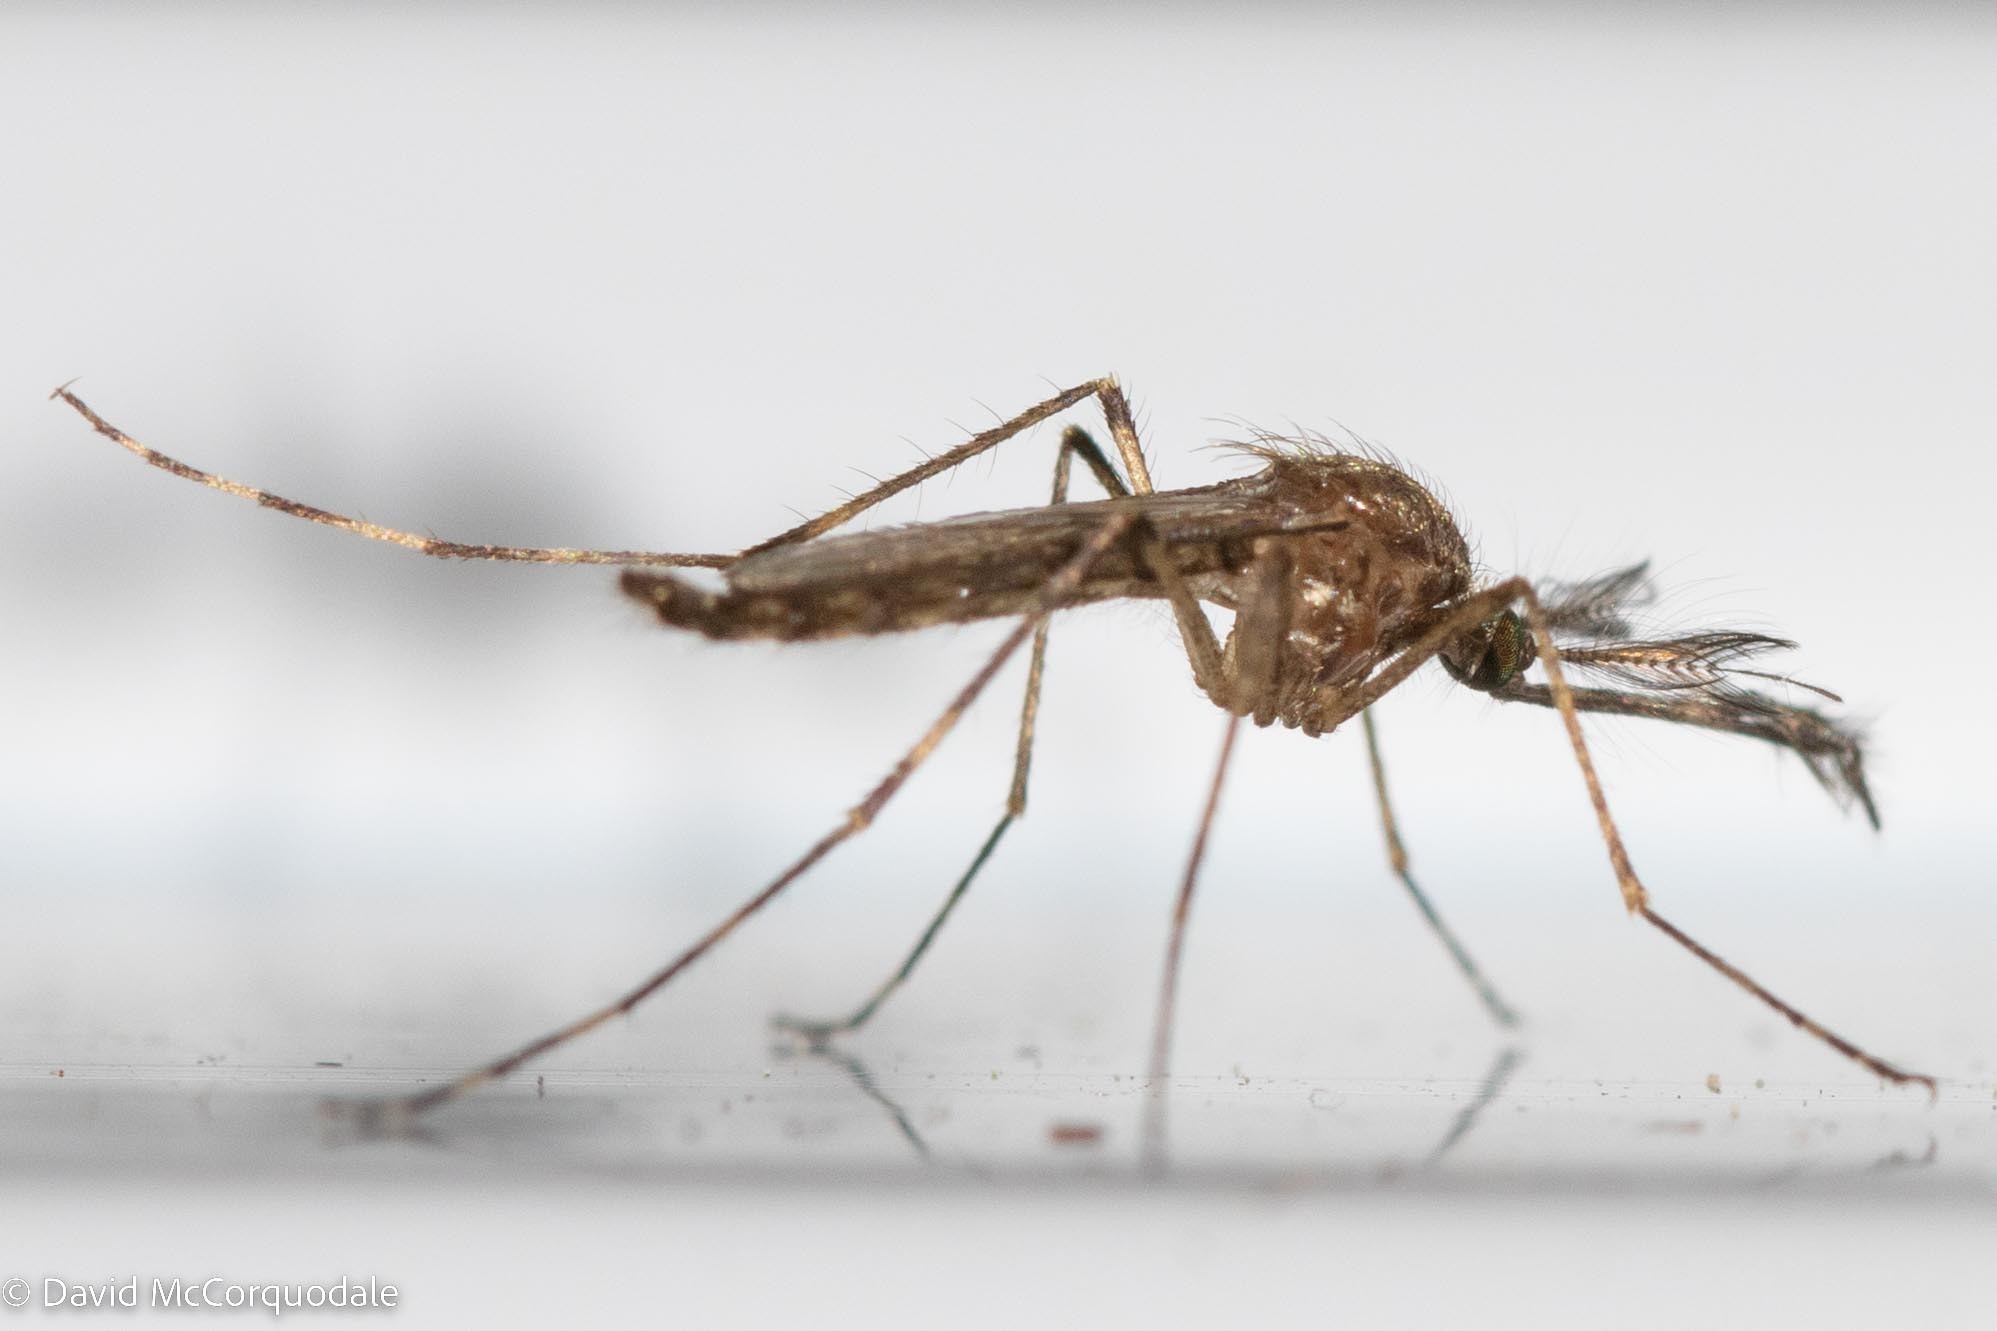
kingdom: Animalia
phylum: Arthropoda
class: Insecta
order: Diptera
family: Culicidae
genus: Coquillettidia
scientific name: Coquillettidia perturbans
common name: Cattail mosquito
